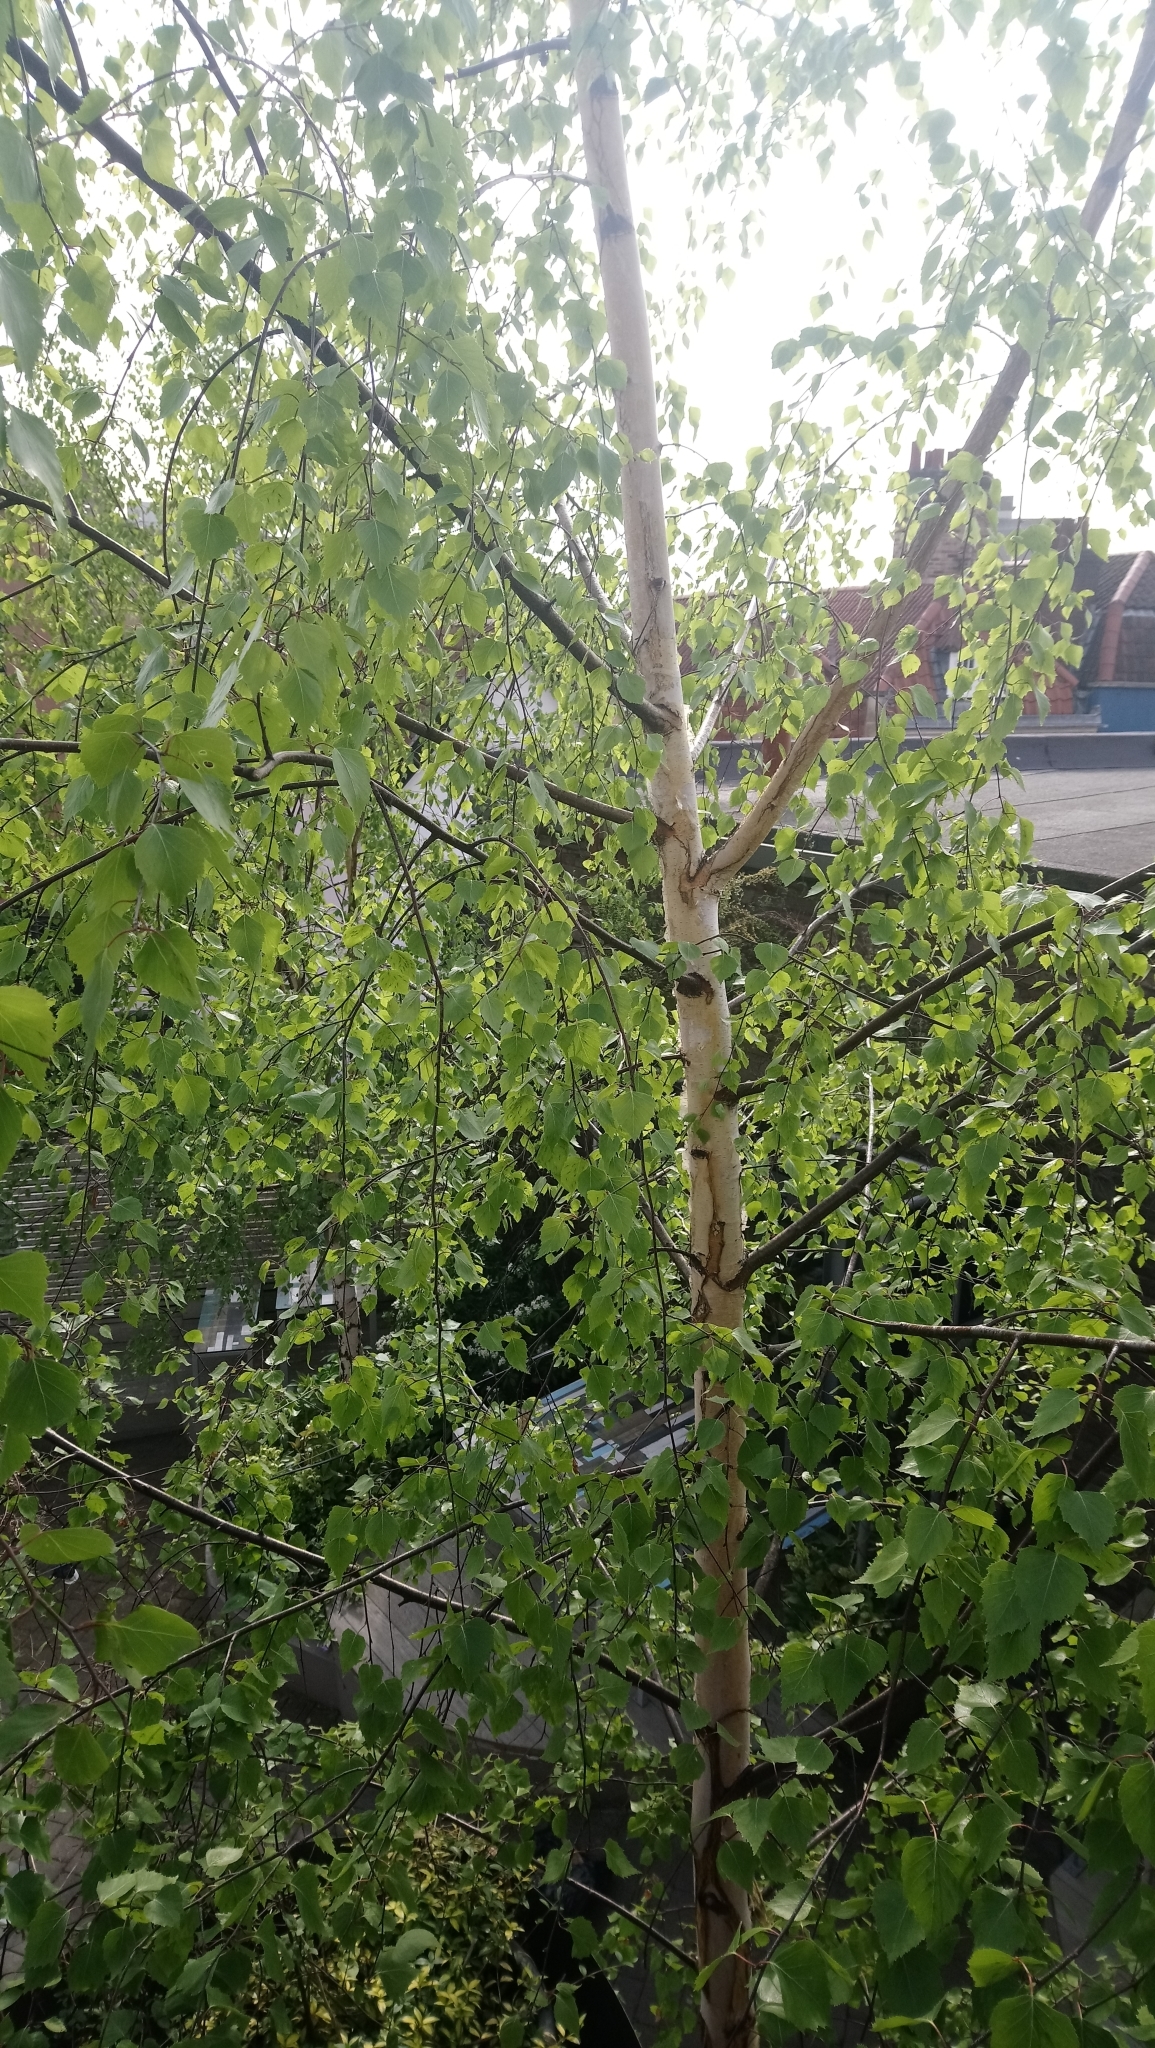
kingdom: Plantae
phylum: Tracheophyta
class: Magnoliopsida
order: Fagales
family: Betulaceae
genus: Betula
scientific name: Betula pendula
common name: Silver birch
